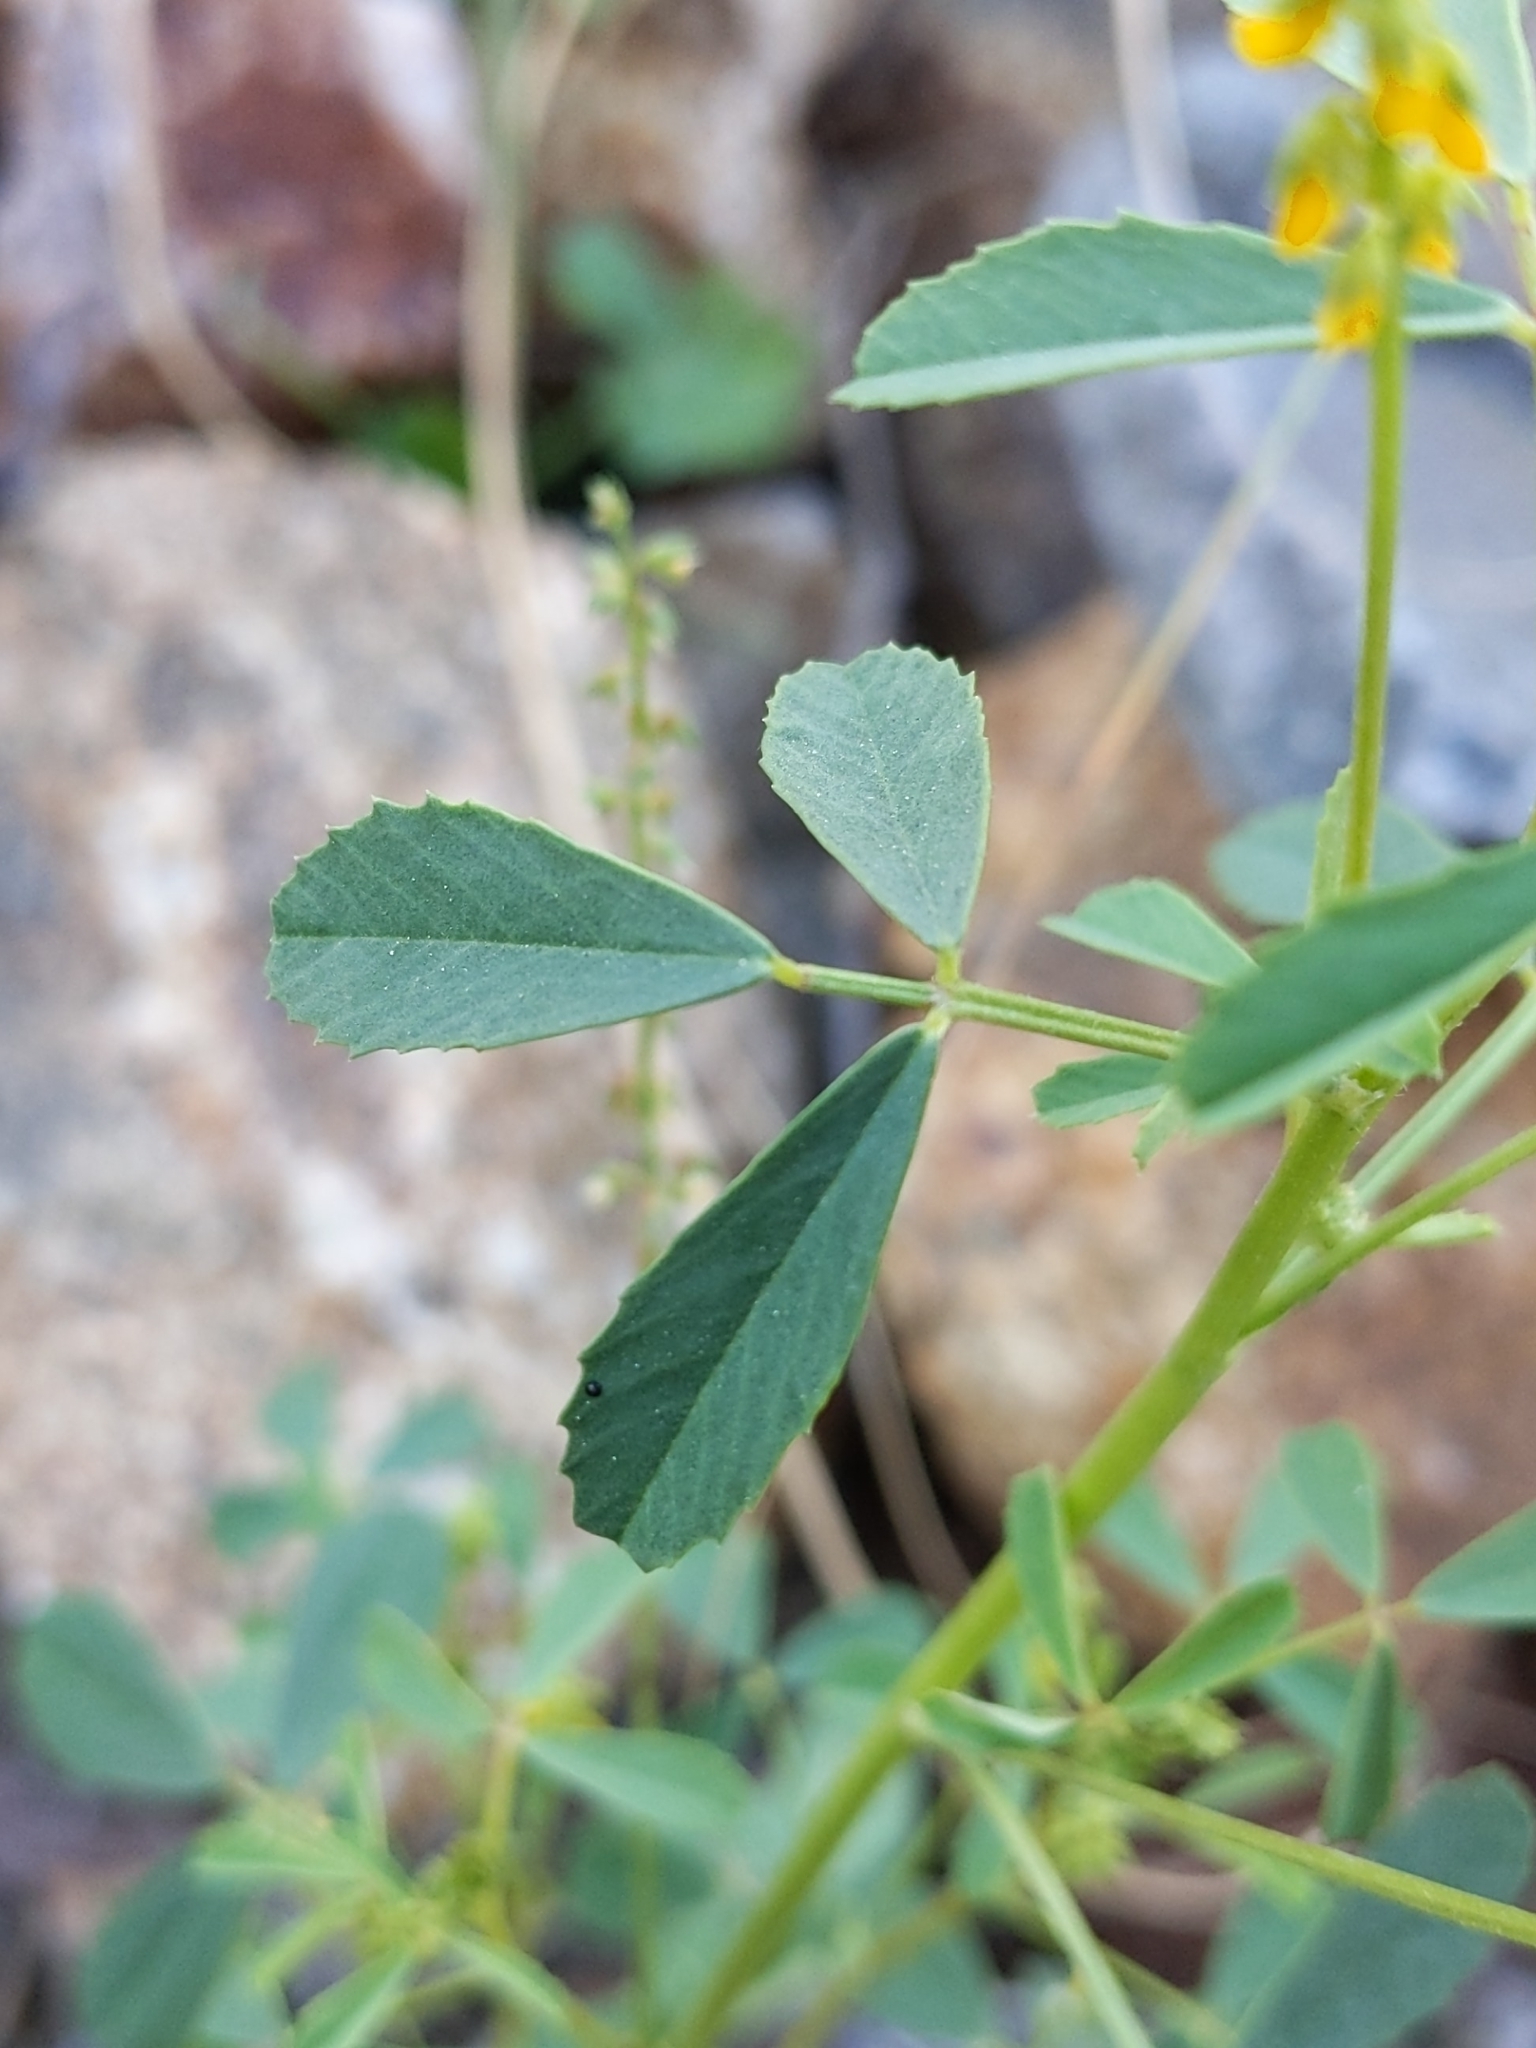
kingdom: Plantae
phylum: Tracheophyta
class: Magnoliopsida
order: Fabales
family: Fabaceae
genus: Melilotus
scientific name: Melilotus indicus
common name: Small melilot
